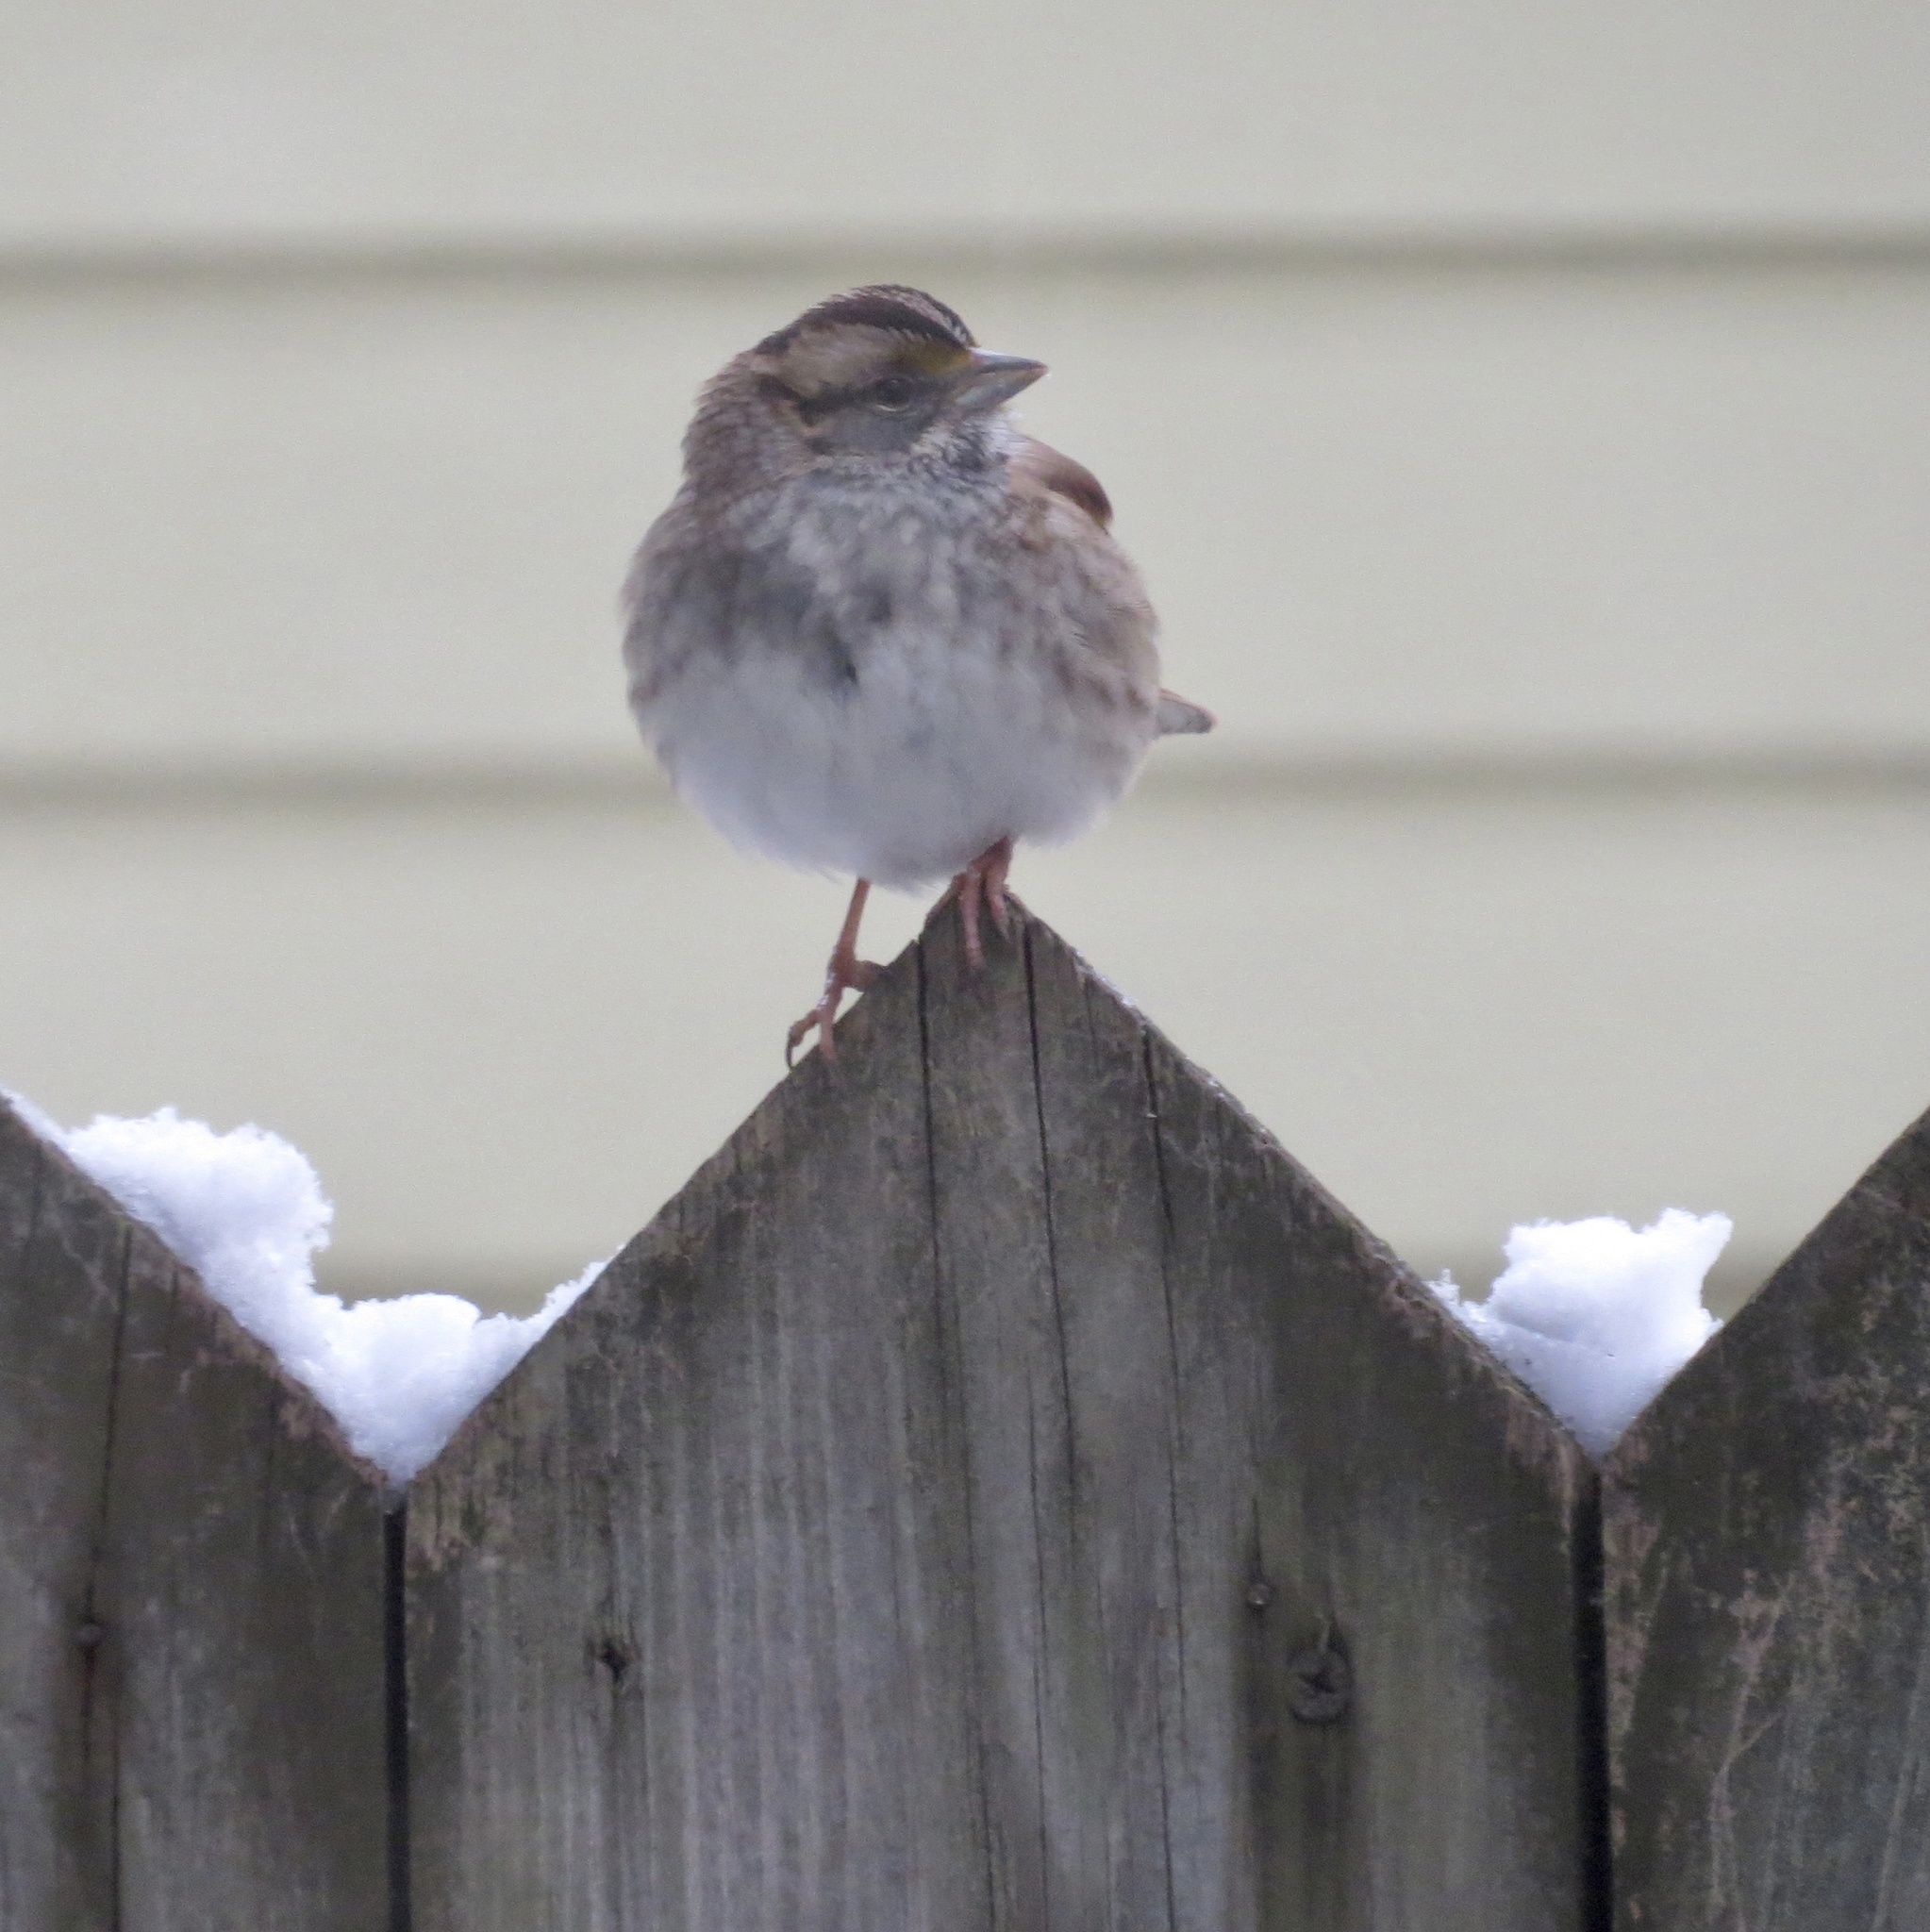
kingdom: Animalia
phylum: Chordata
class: Aves
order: Passeriformes
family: Passerellidae
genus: Zonotrichia
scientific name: Zonotrichia albicollis
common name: White-throated sparrow
